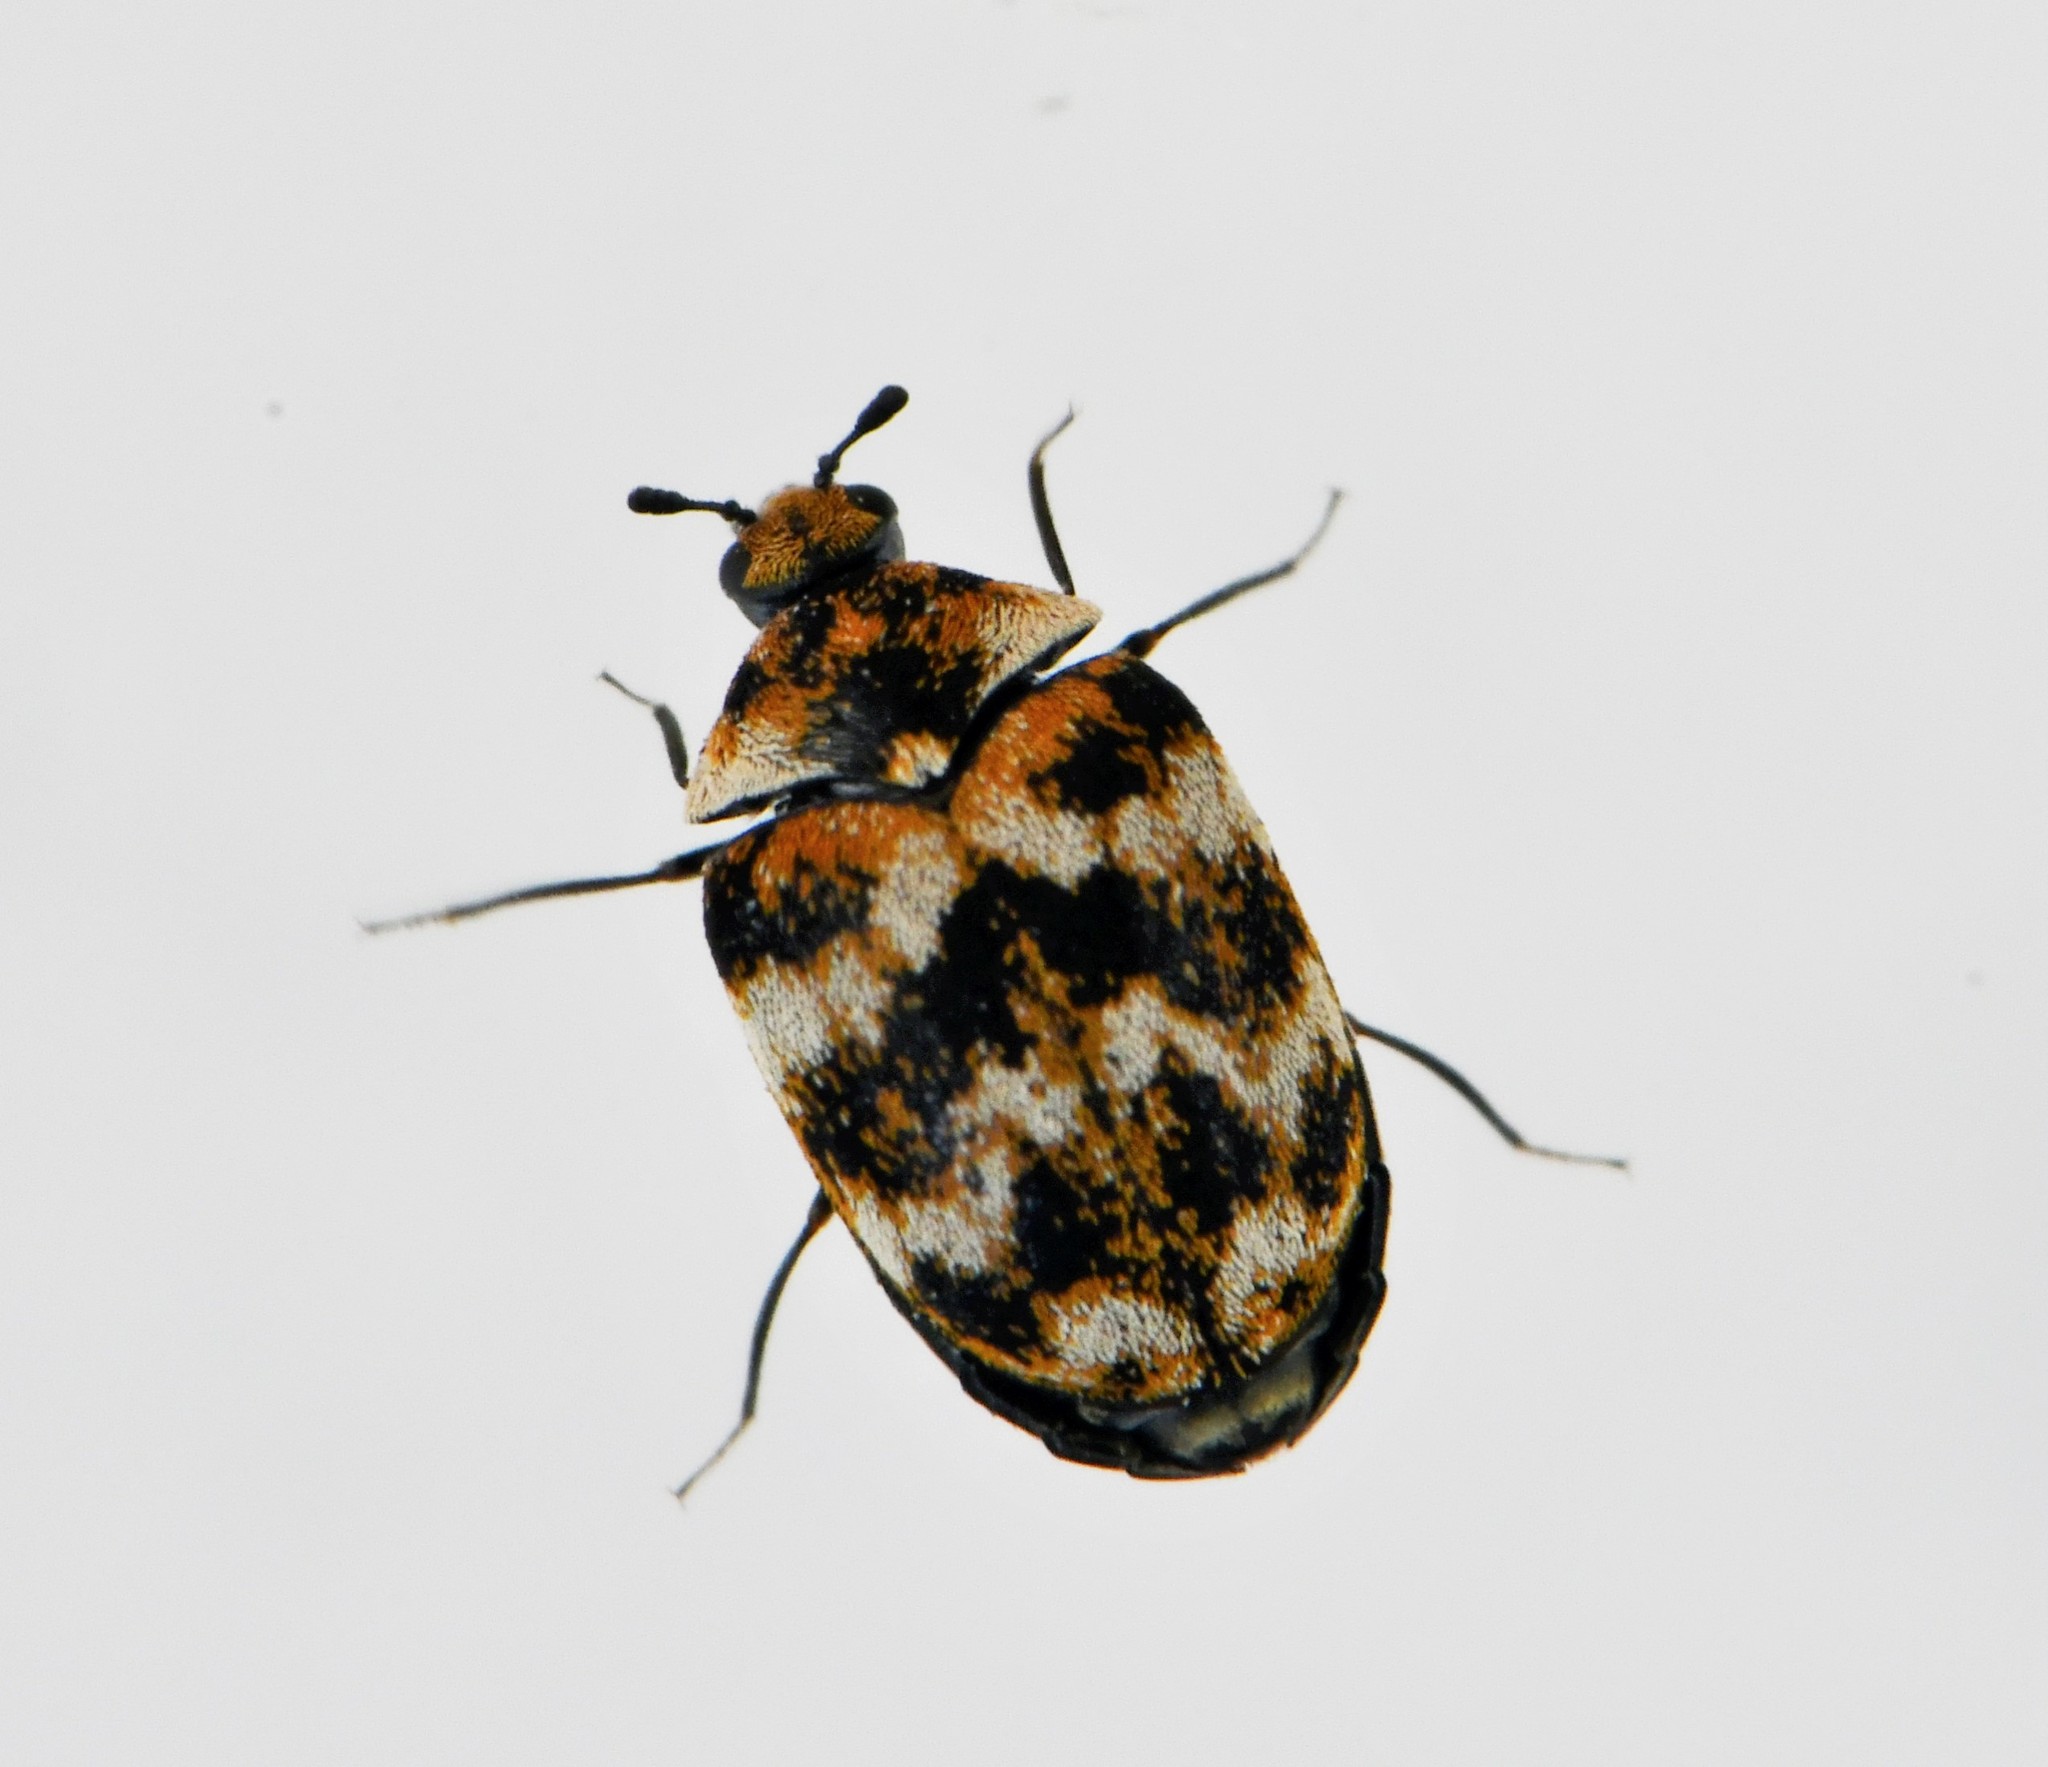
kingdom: Animalia
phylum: Arthropoda
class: Insecta
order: Coleoptera
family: Dermestidae
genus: Anthrenus
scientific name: Anthrenus verbasci
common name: Varied carpet beetle
